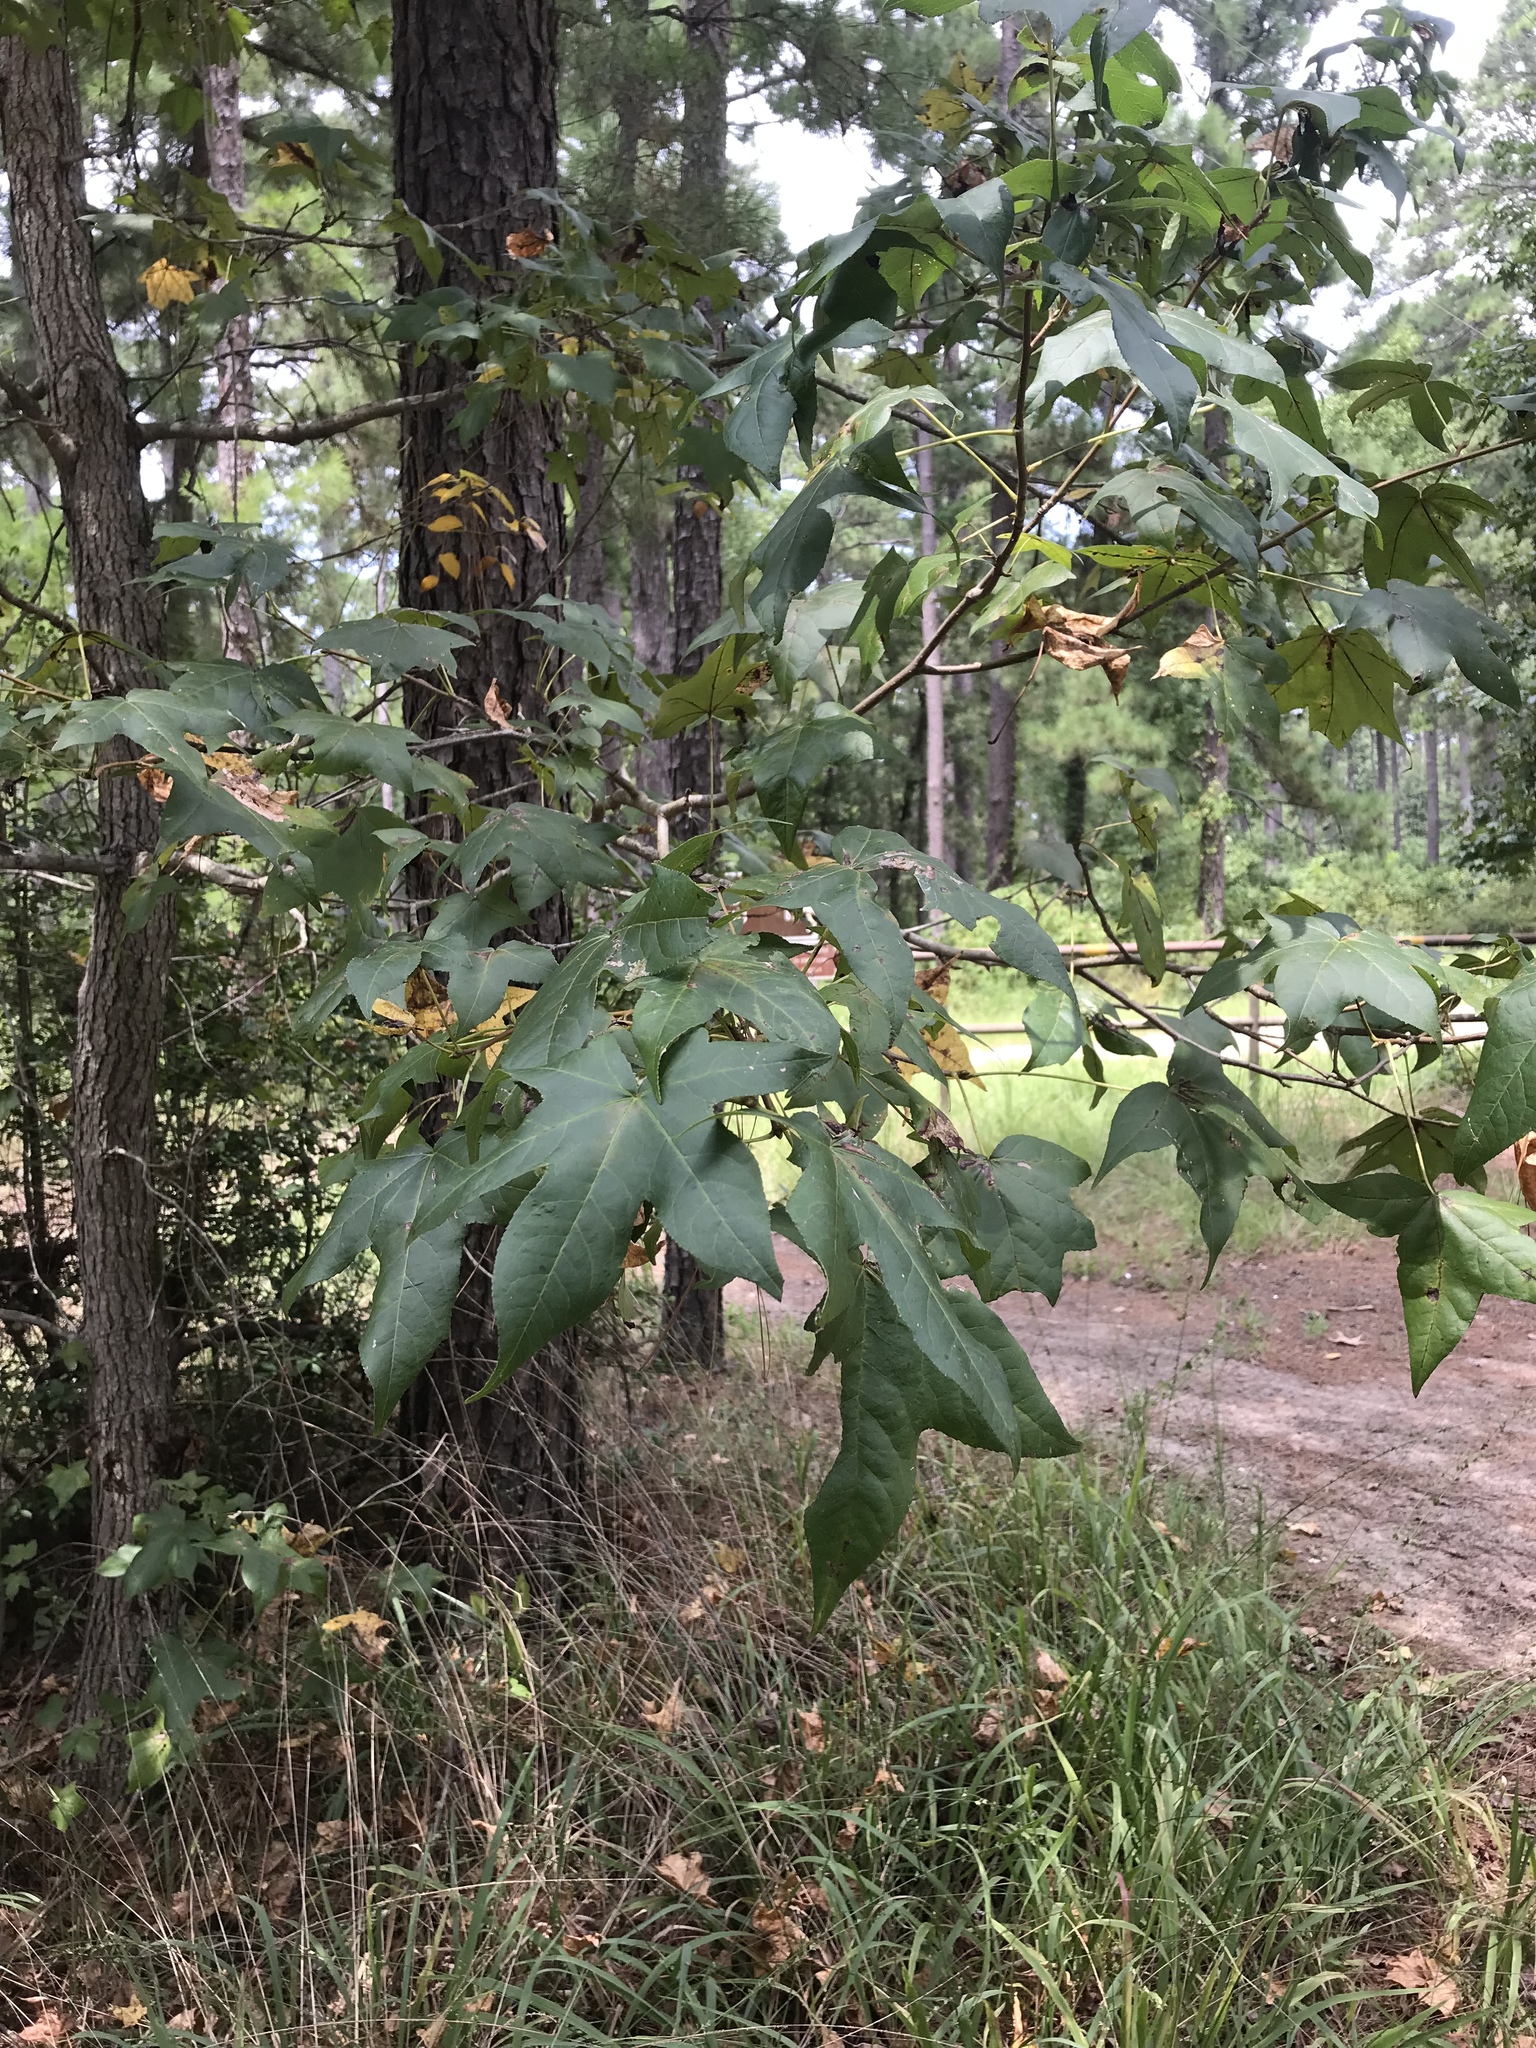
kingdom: Plantae
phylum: Tracheophyta
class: Magnoliopsida
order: Saxifragales
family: Altingiaceae
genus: Liquidambar
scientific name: Liquidambar styraciflua
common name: Sweet gum
